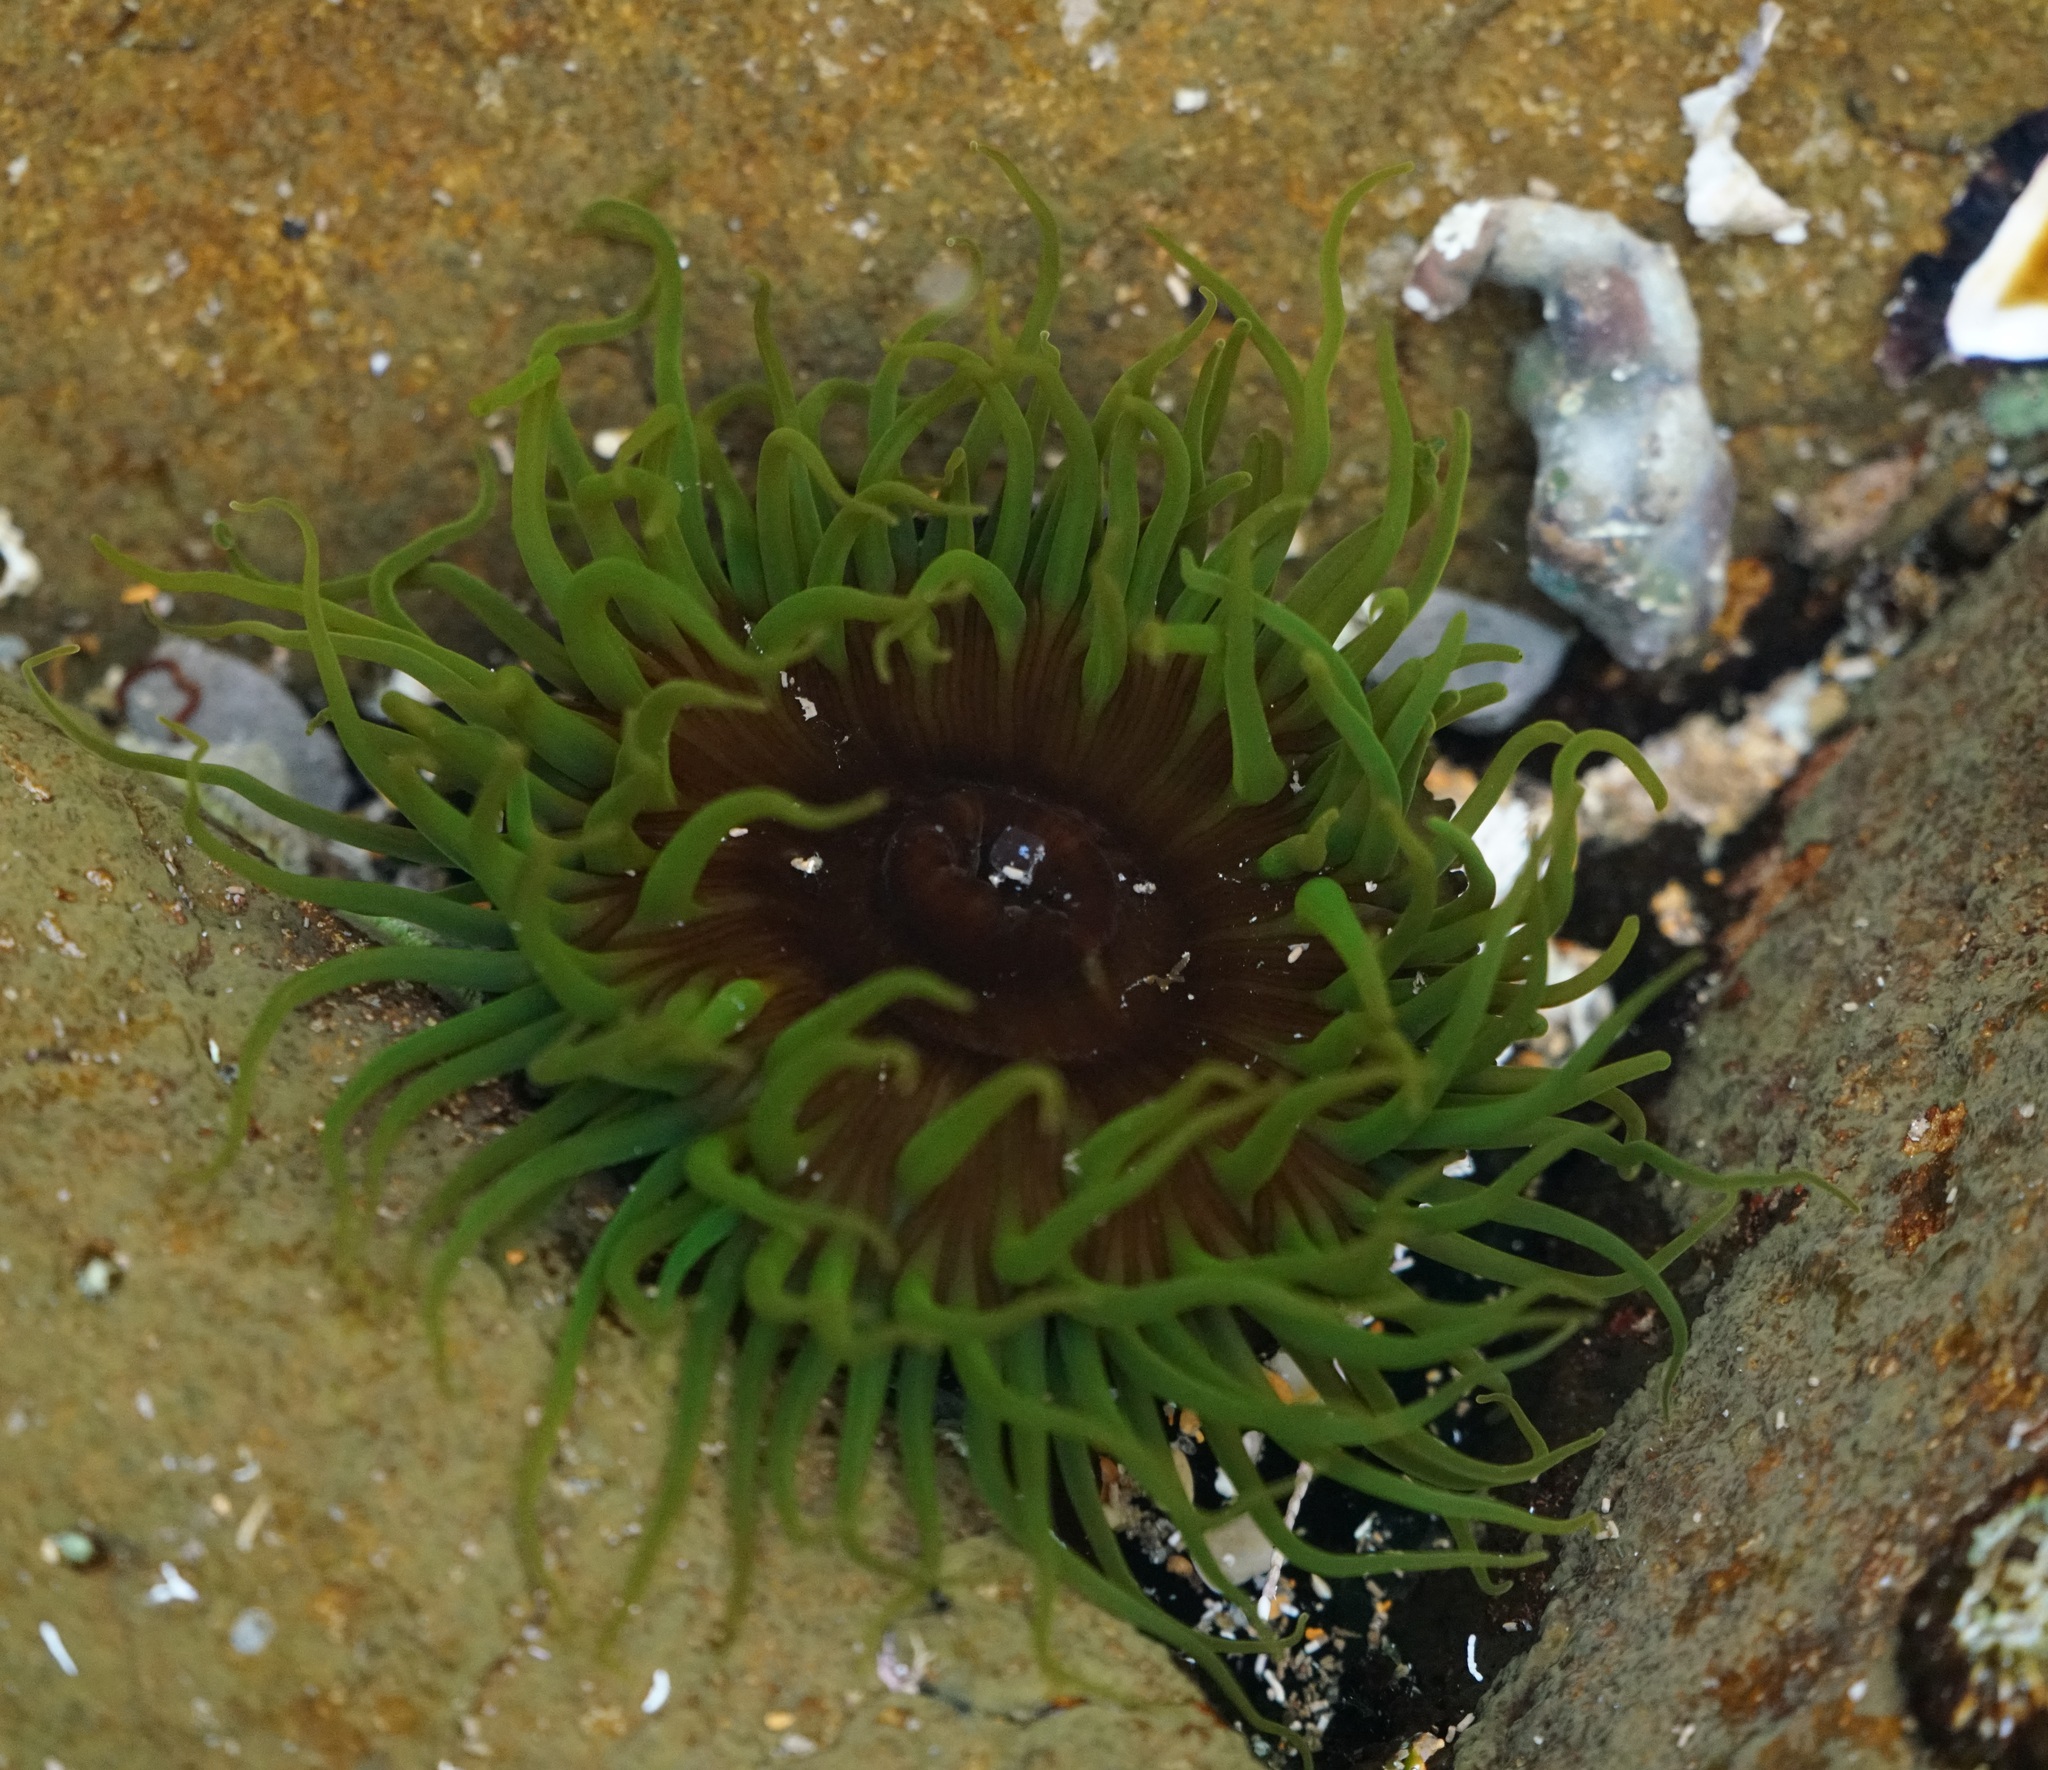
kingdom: Animalia
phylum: Cnidaria
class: Anthozoa
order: Actiniaria
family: Actiniidae
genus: Aulactinia
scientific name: Aulactinia veratra
